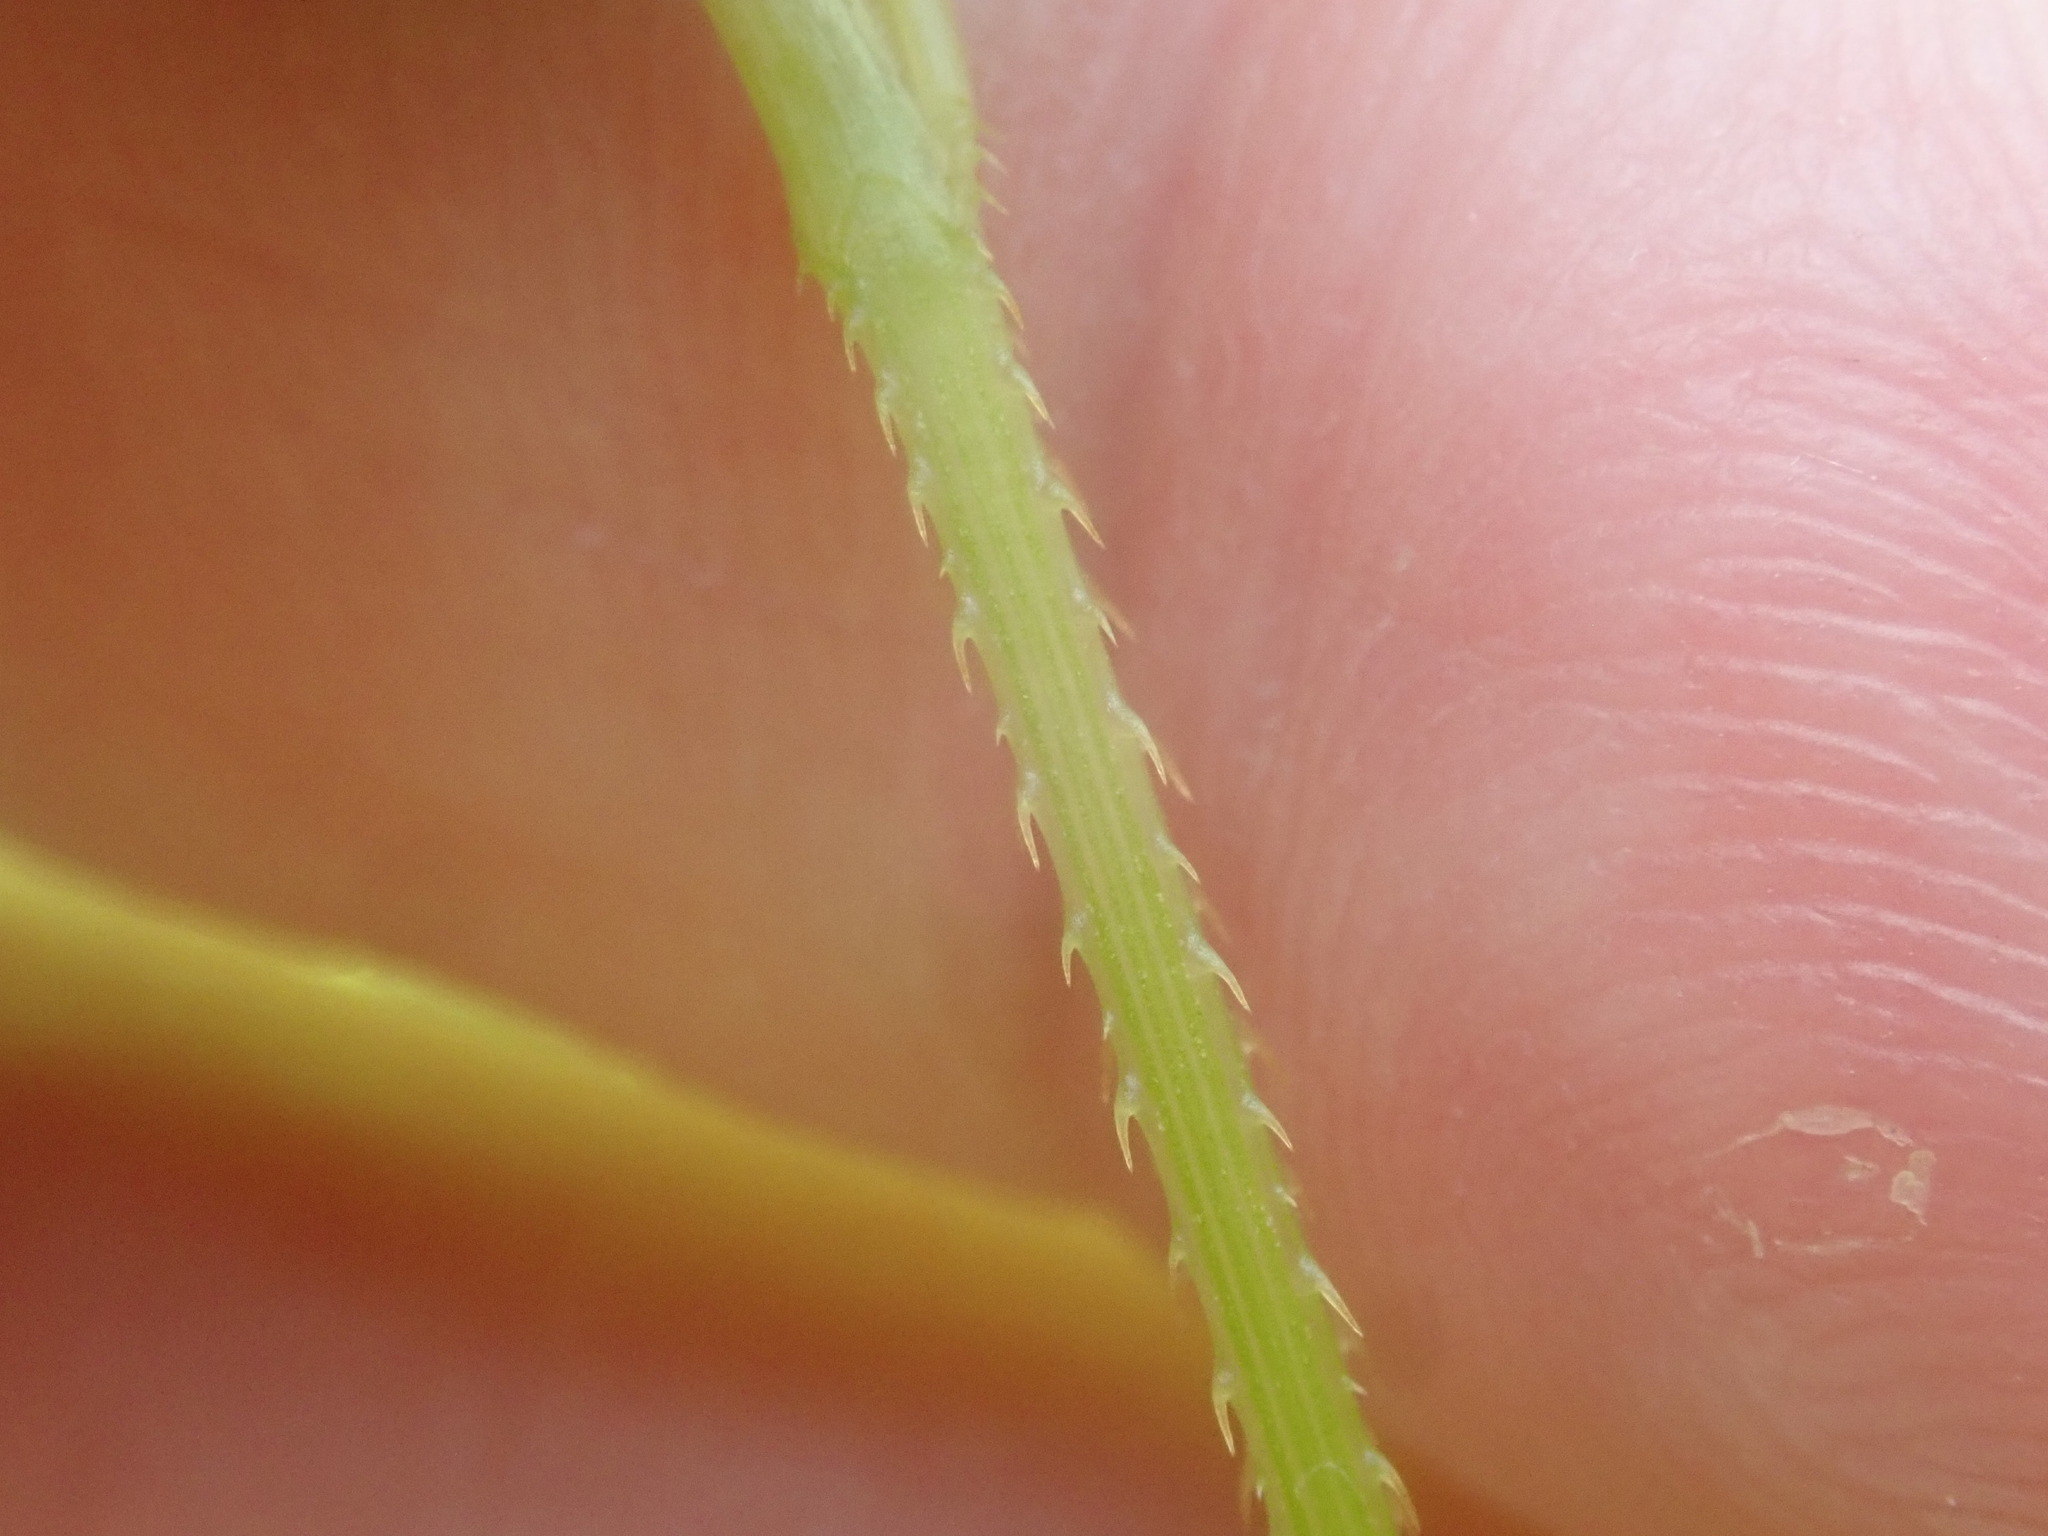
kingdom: Plantae
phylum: Tracheophyta
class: Magnoliopsida
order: Caryophyllales
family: Polygonaceae
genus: Persicaria
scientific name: Persicaria sagittata
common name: American tearthumb
